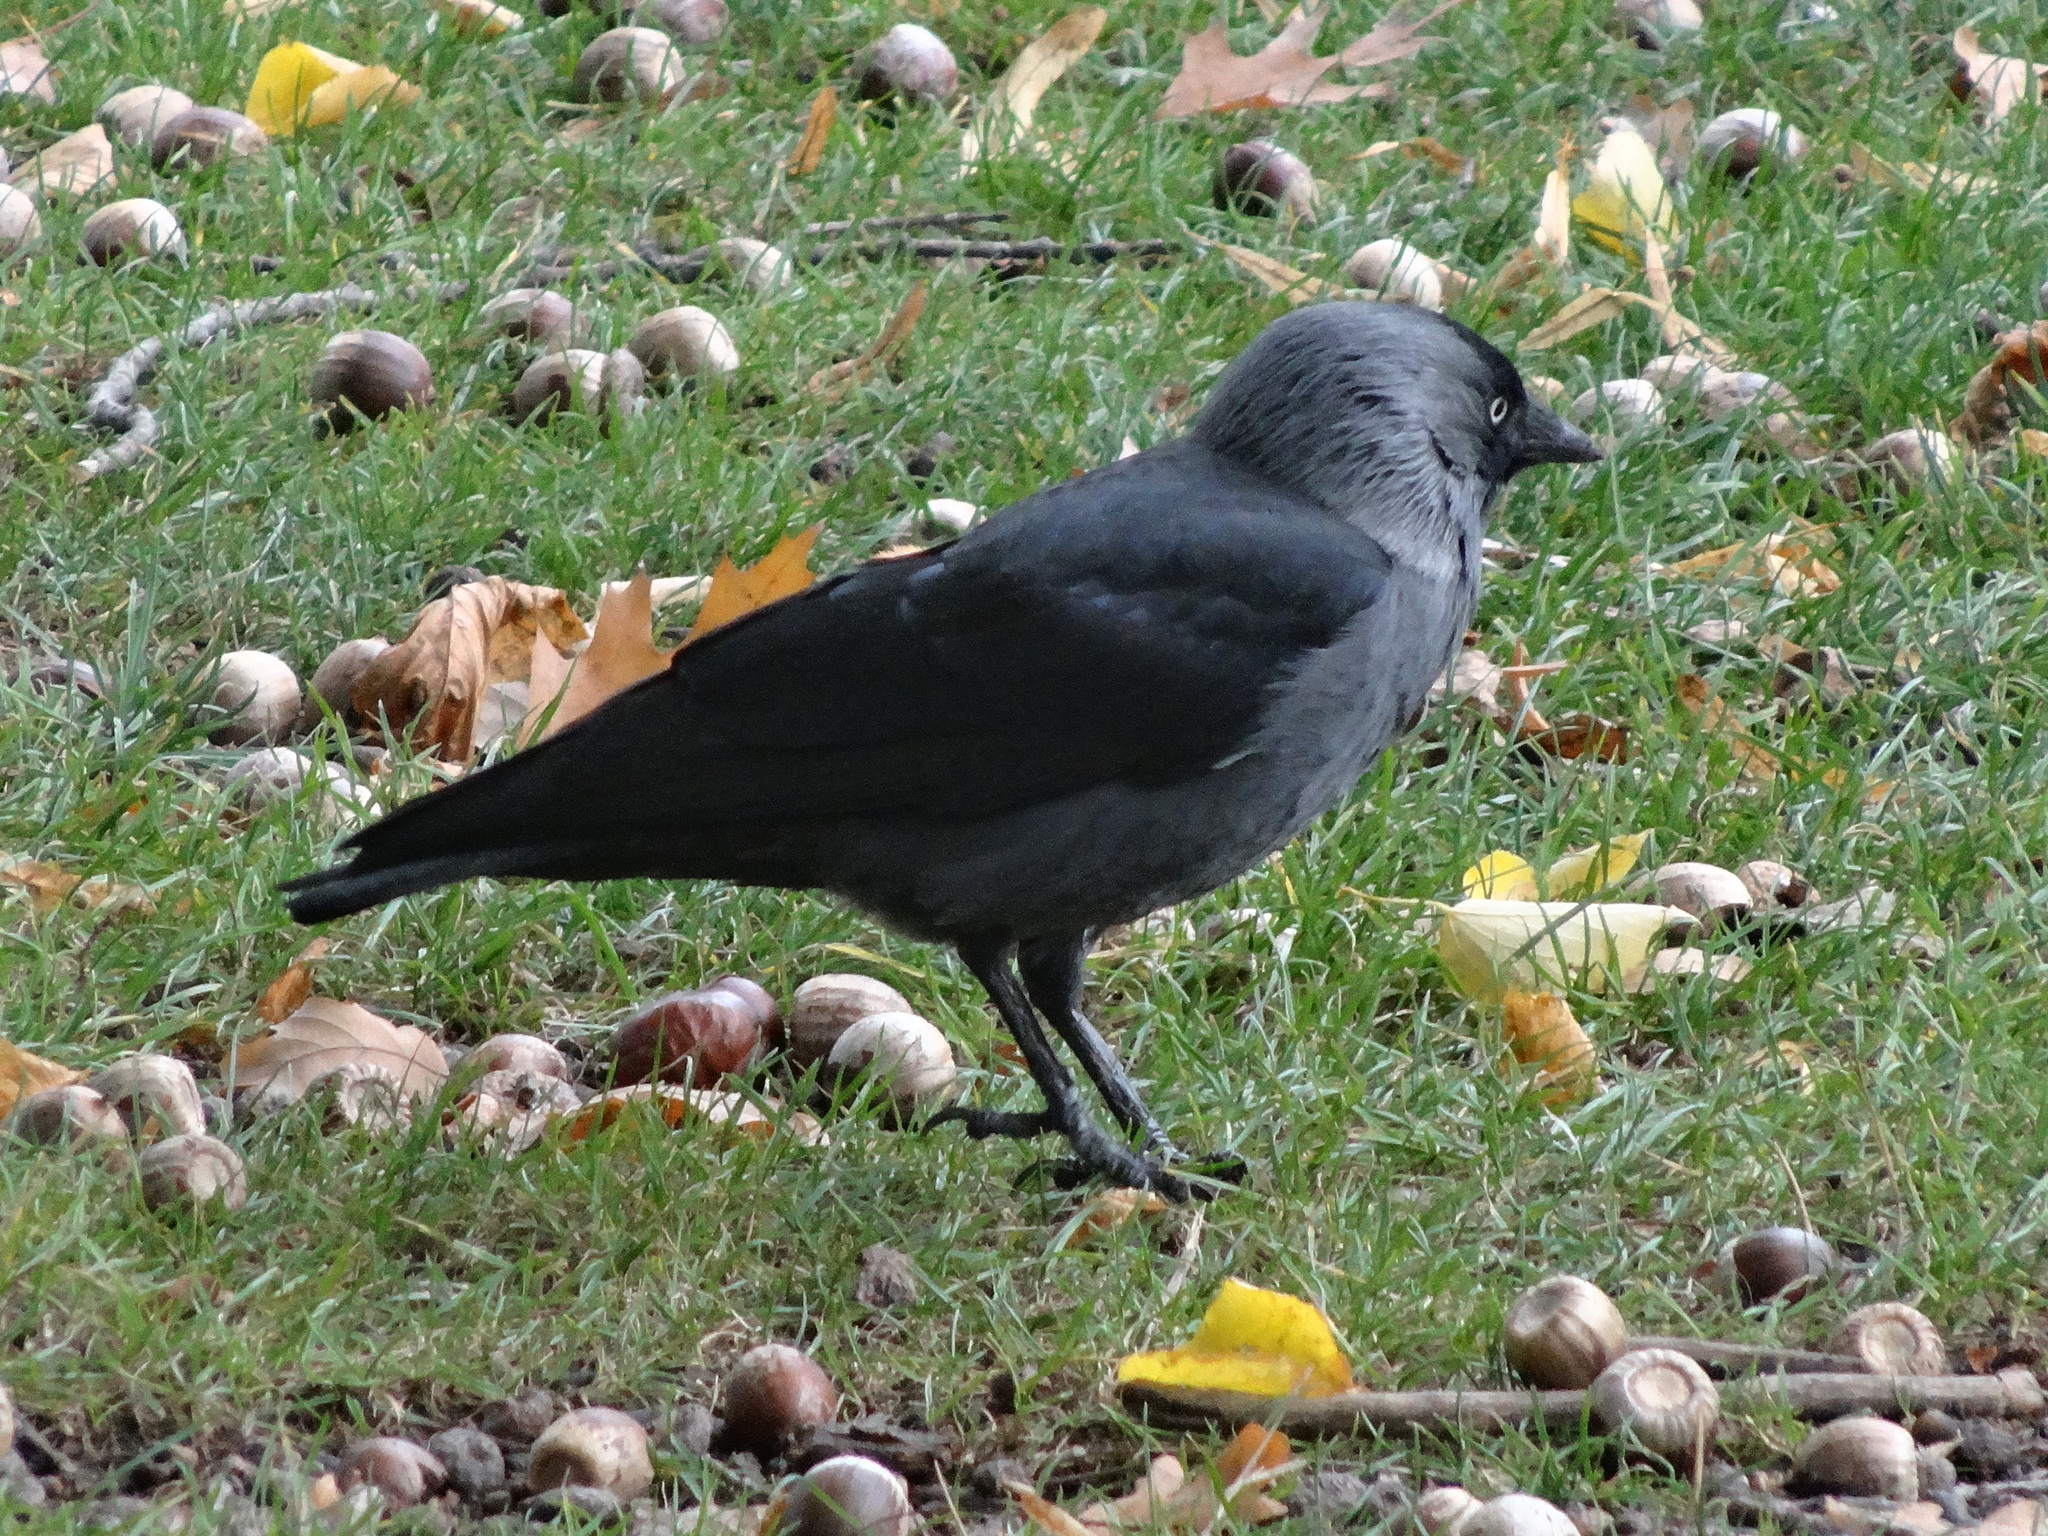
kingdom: Animalia
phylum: Chordata
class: Aves
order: Passeriformes
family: Corvidae
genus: Coloeus
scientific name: Coloeus monedula
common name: Western jackdaw
